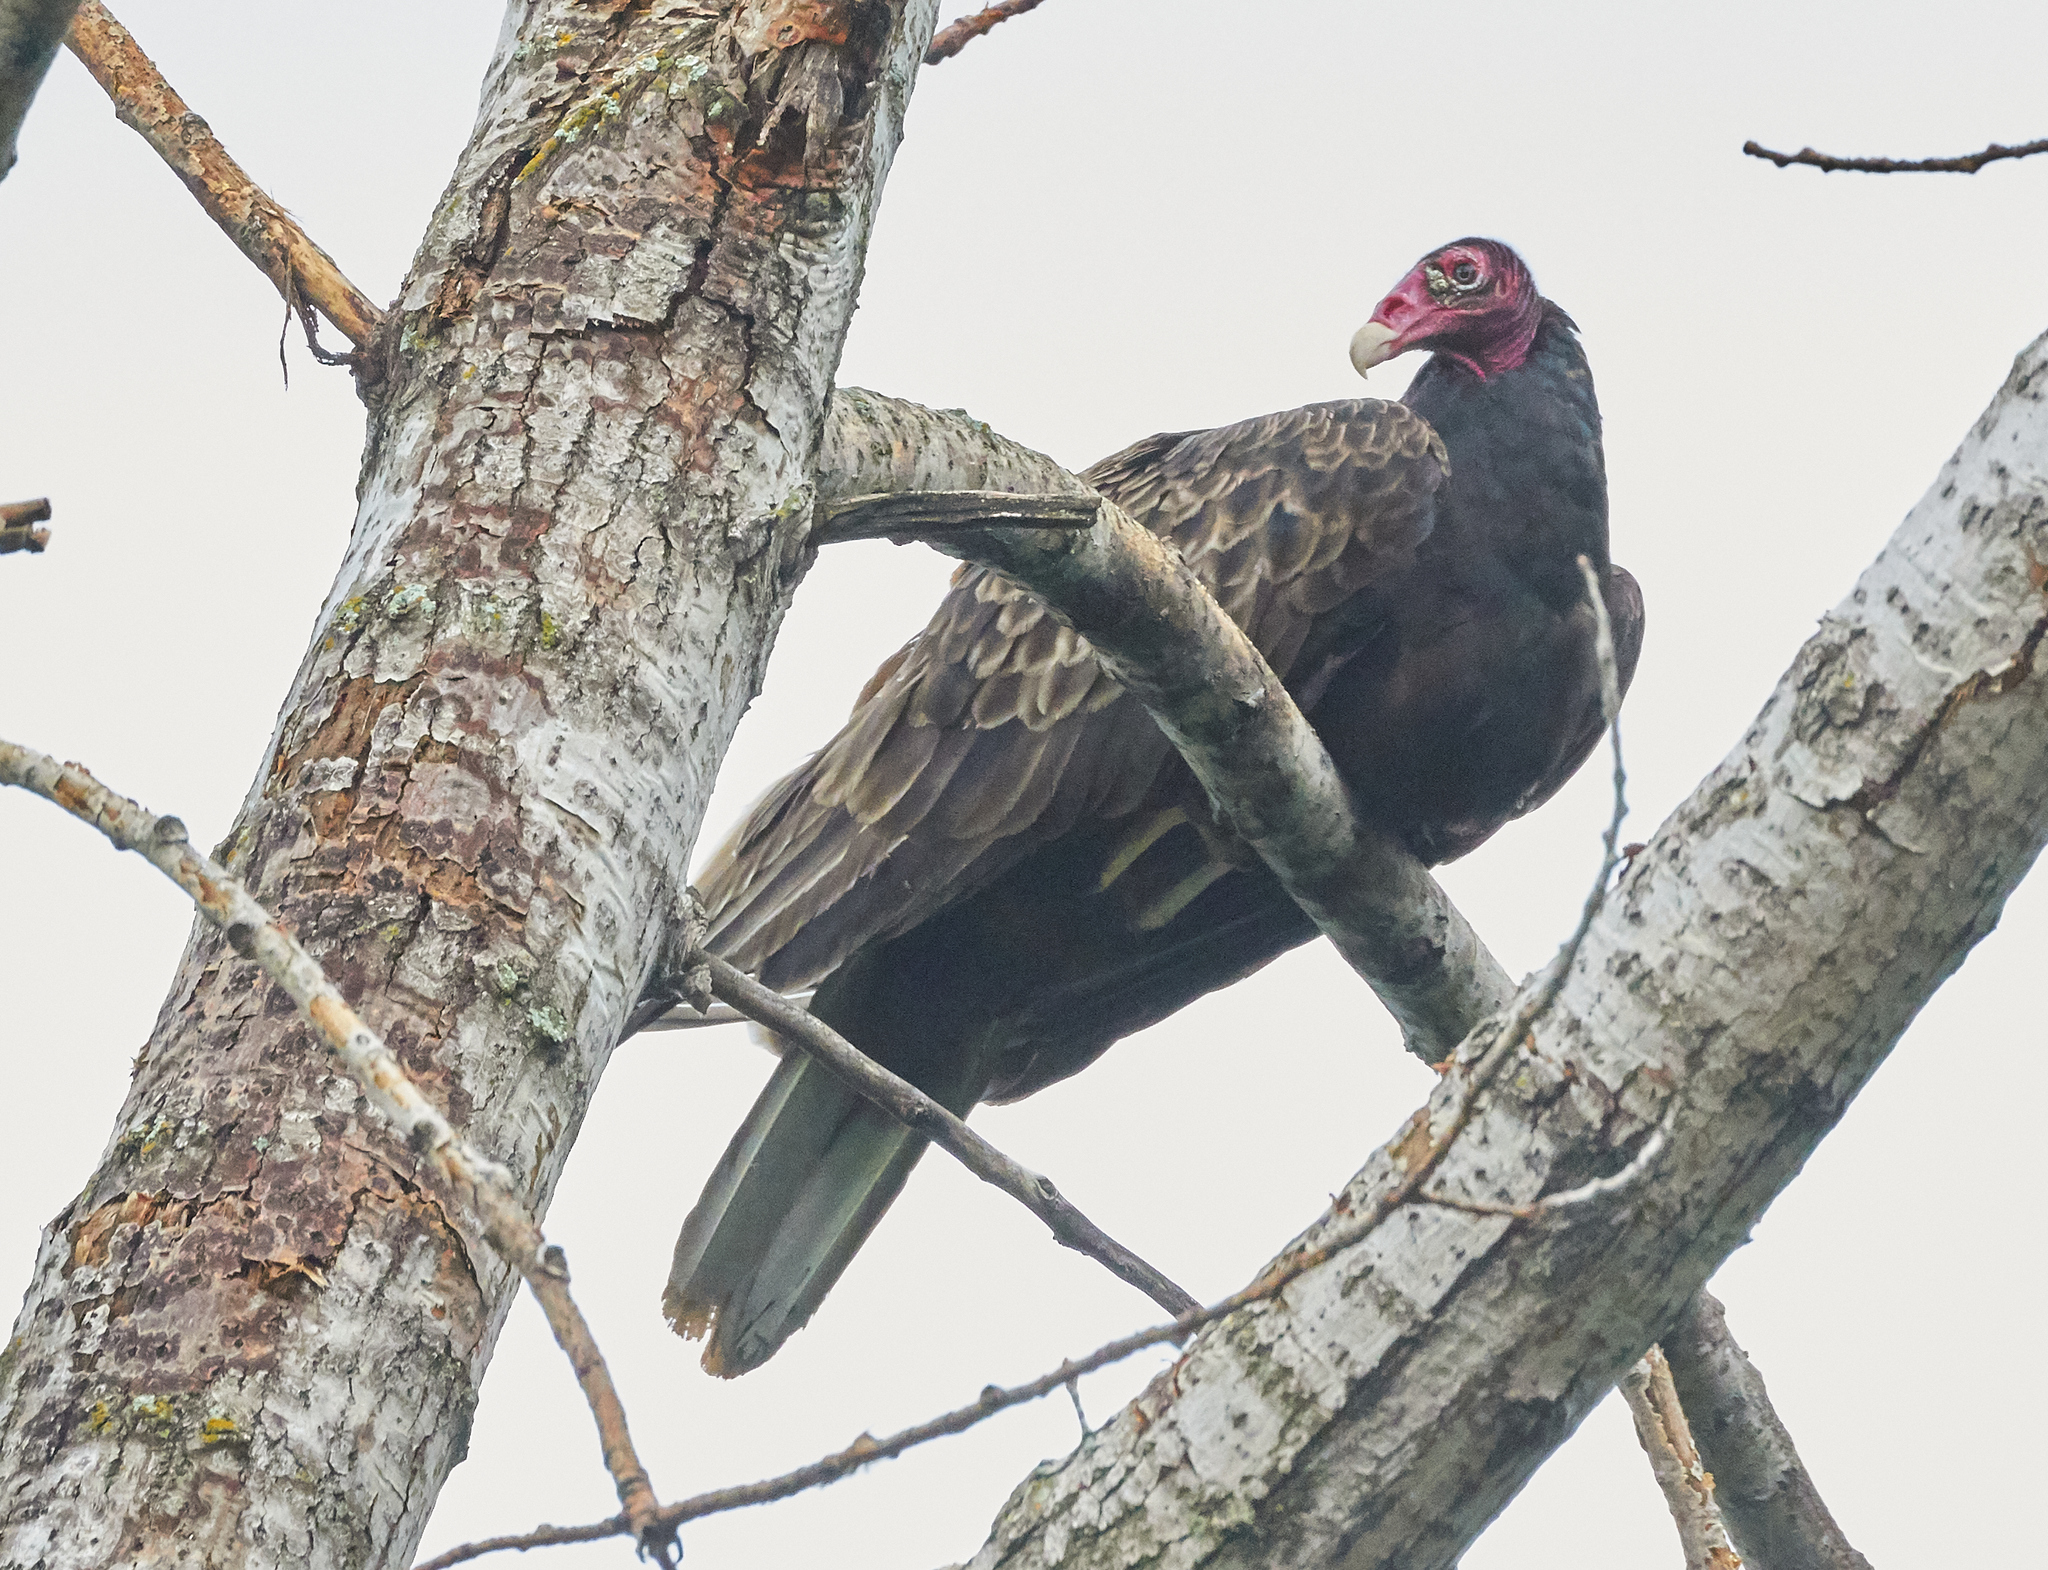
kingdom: Animalia
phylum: Chordata
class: Aves
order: Accipitriformes
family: Cathartidae
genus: Cathartes
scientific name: Cathartes aura
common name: Turkey vulture
